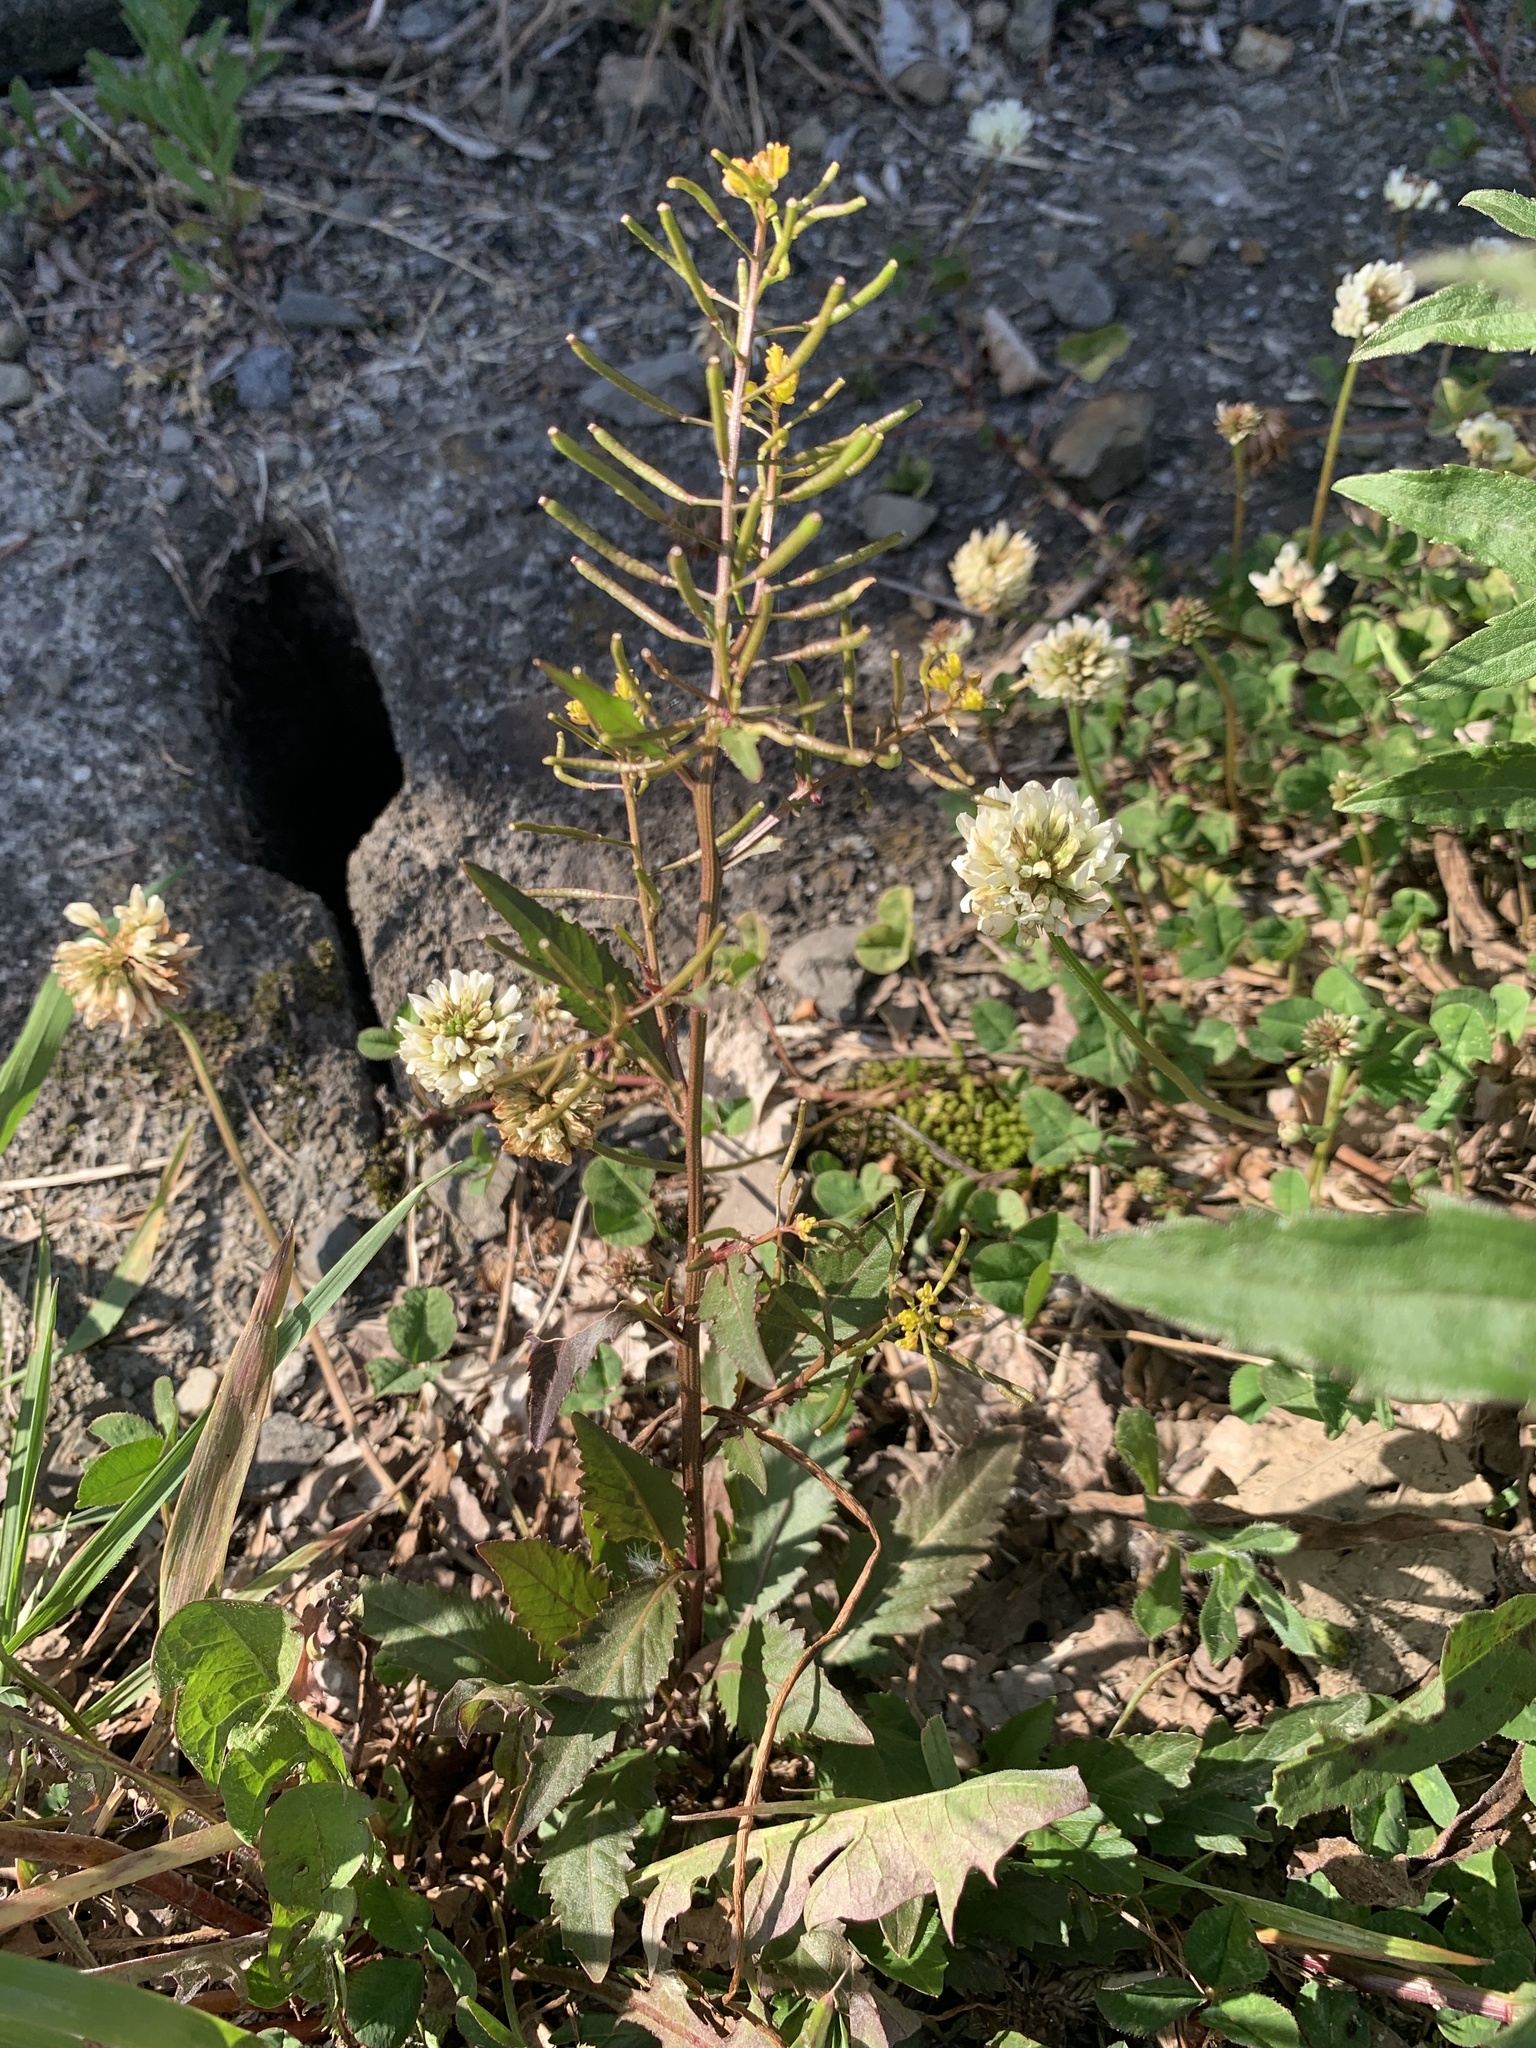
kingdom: Plantae
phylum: Tracheophyta
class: Magnoliopsida
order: Brassicales
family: Brassicaceae
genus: Rorippa
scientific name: Rorippa indica
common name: Variableleaf yellowcress
